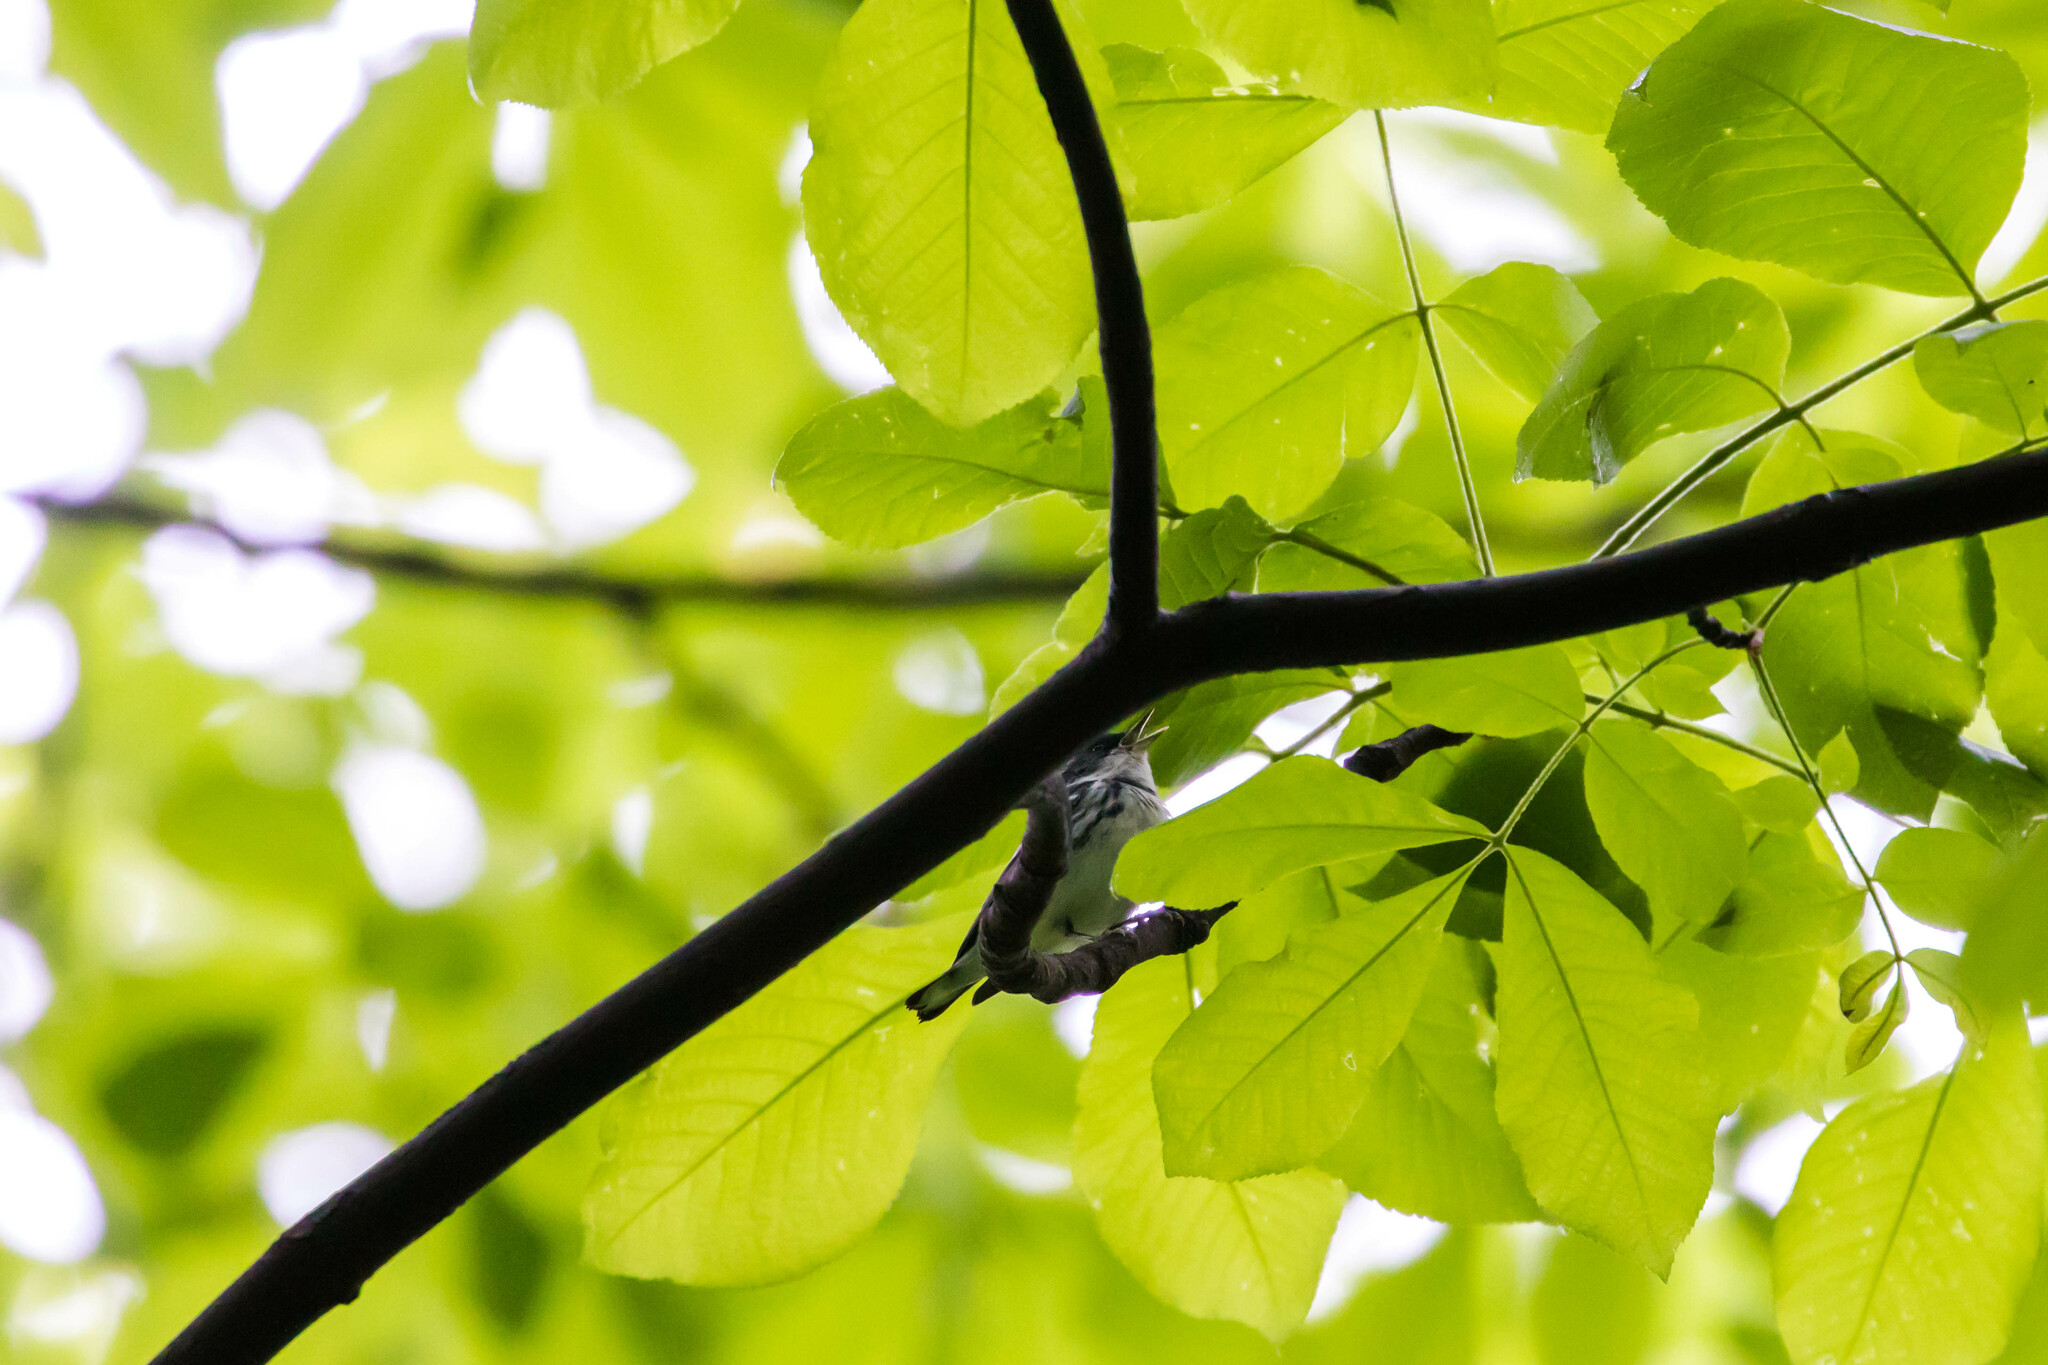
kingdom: Animalia
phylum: Chordata
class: Aves
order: Passeriformes
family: Parulidae
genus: Setophaga
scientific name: Setophaga cerulea
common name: Cerulean warbler
